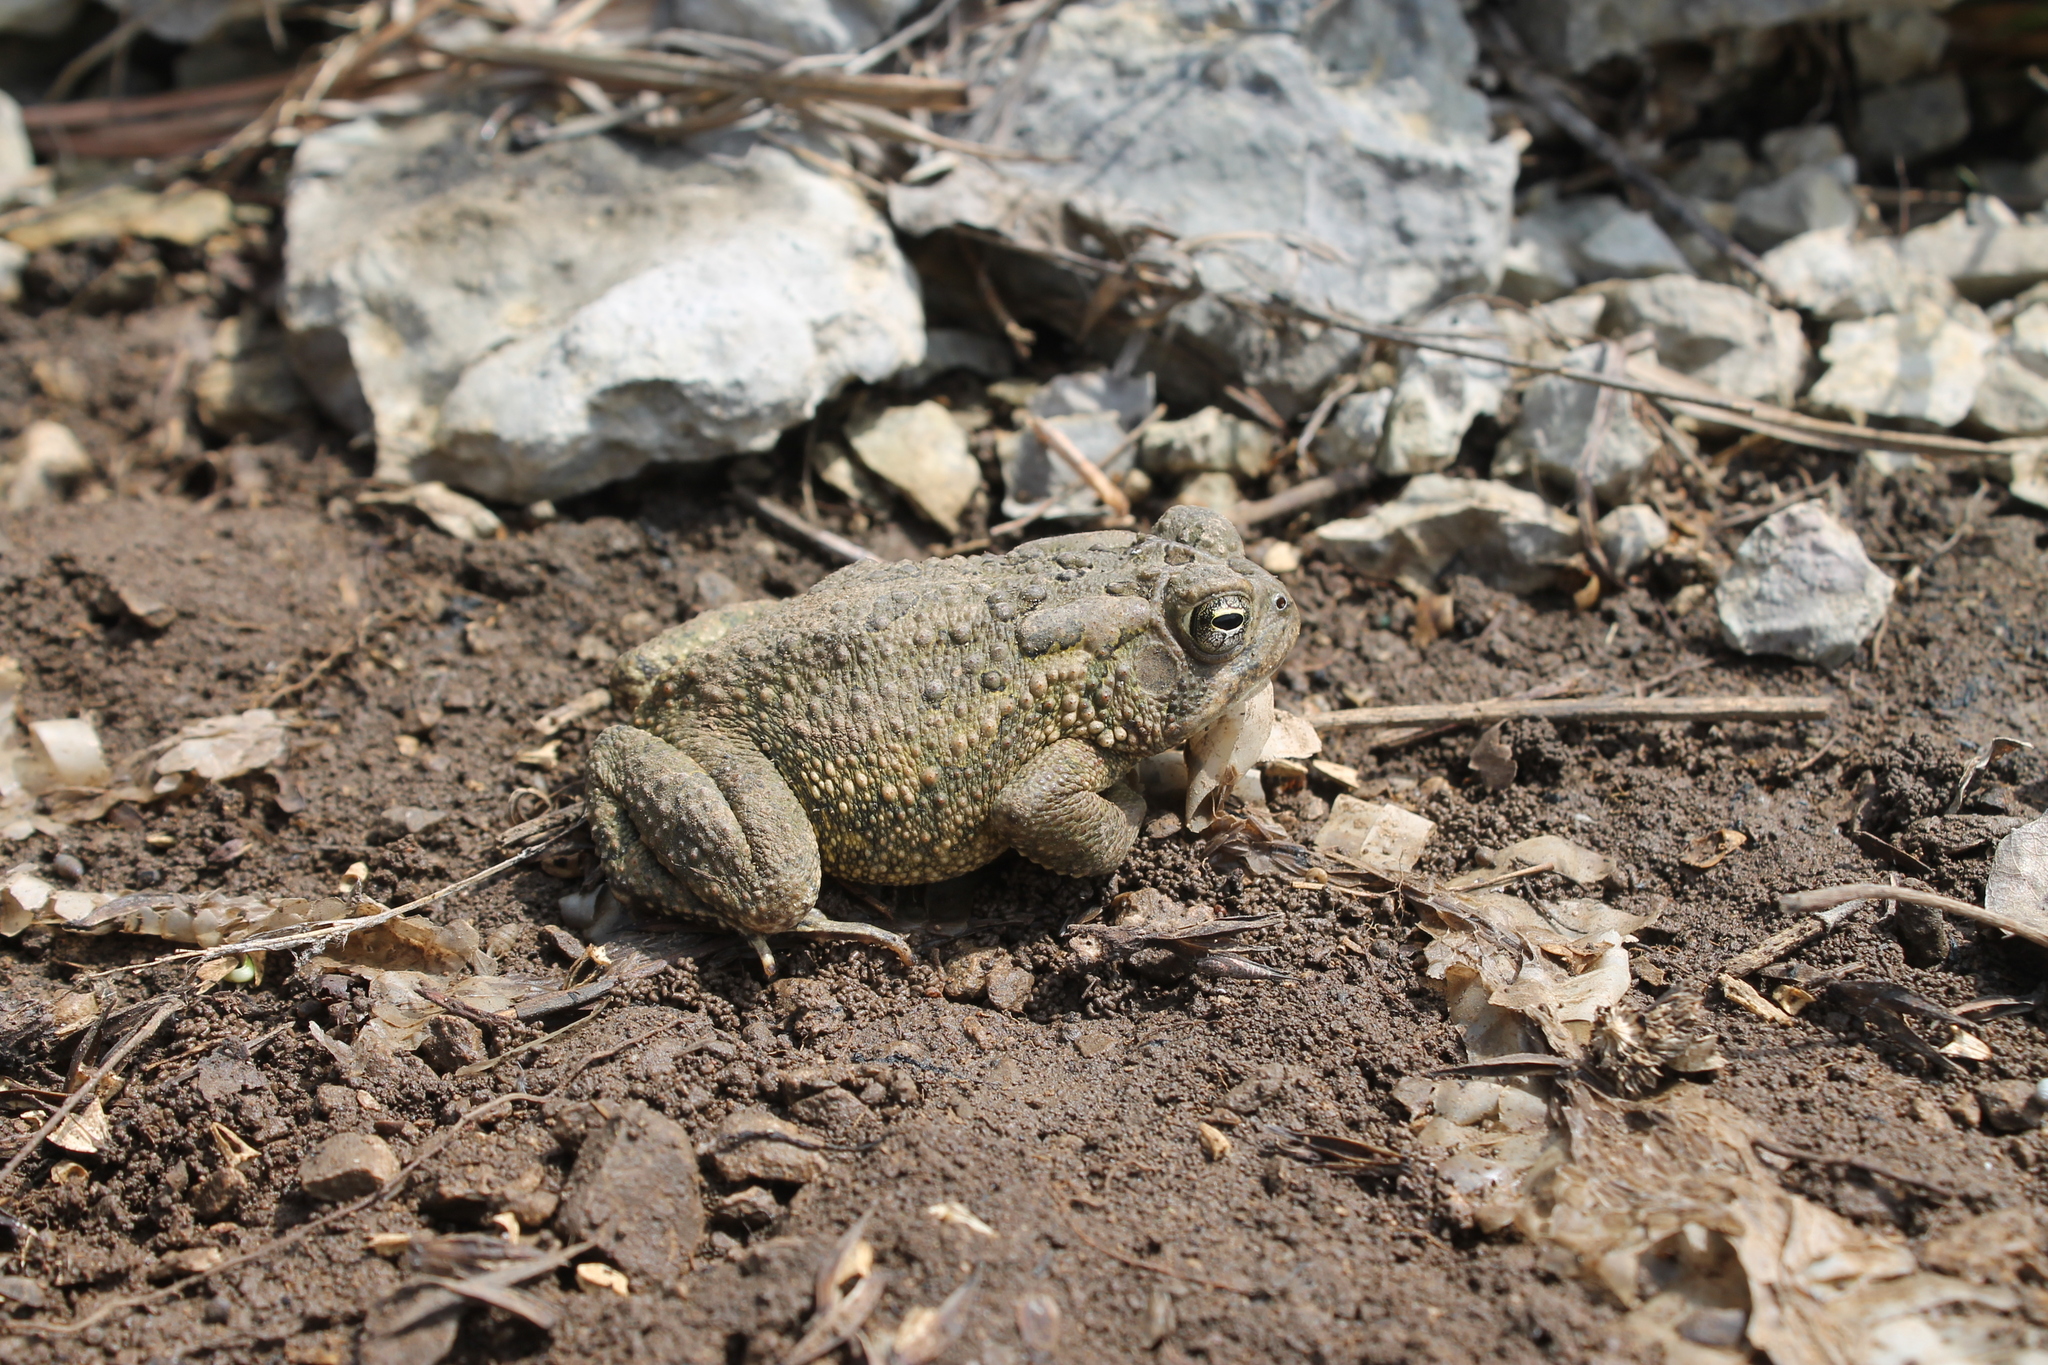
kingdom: Animalia
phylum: Chordata
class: Amphibia
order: Anura
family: Bufonidae
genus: Anaxyrus
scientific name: Anaxyrus fowleri
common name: Fowler's toad
